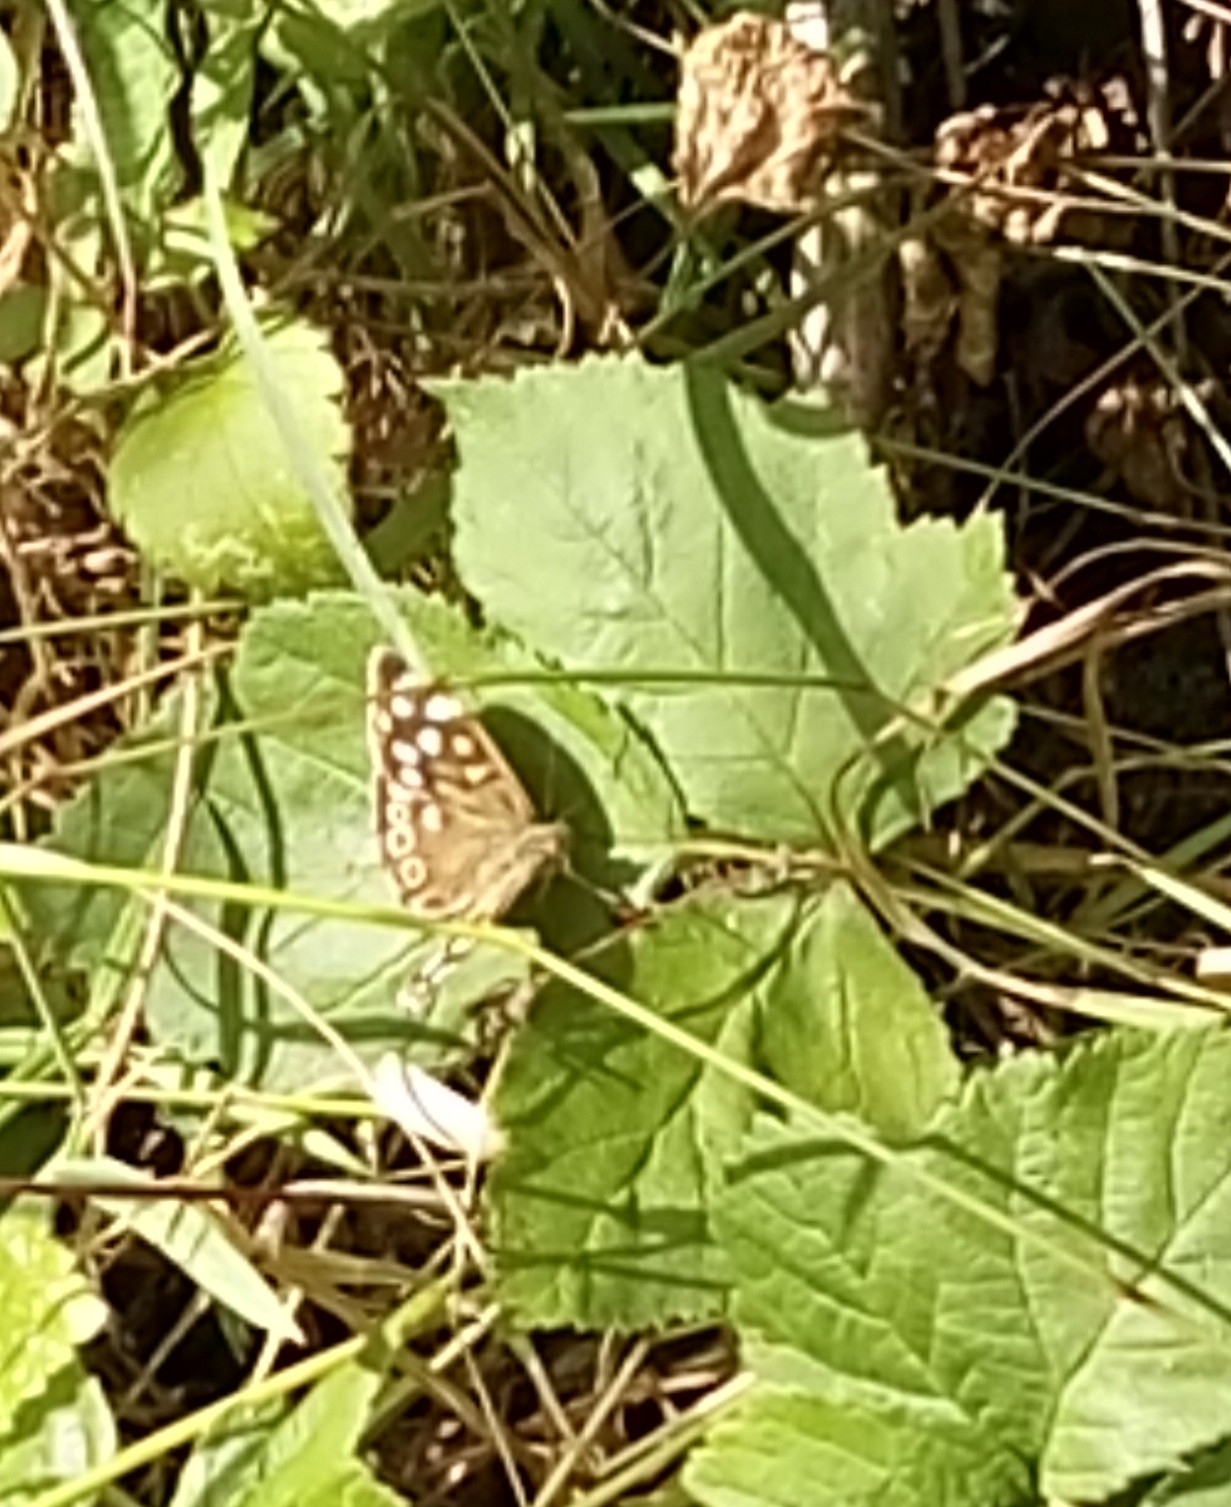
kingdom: Animalia
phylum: Arthropoda
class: Insecta
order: Lepidoptera
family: Nymphalidae
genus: Pararge
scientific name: Pararge aegeria
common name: Speckled wood
